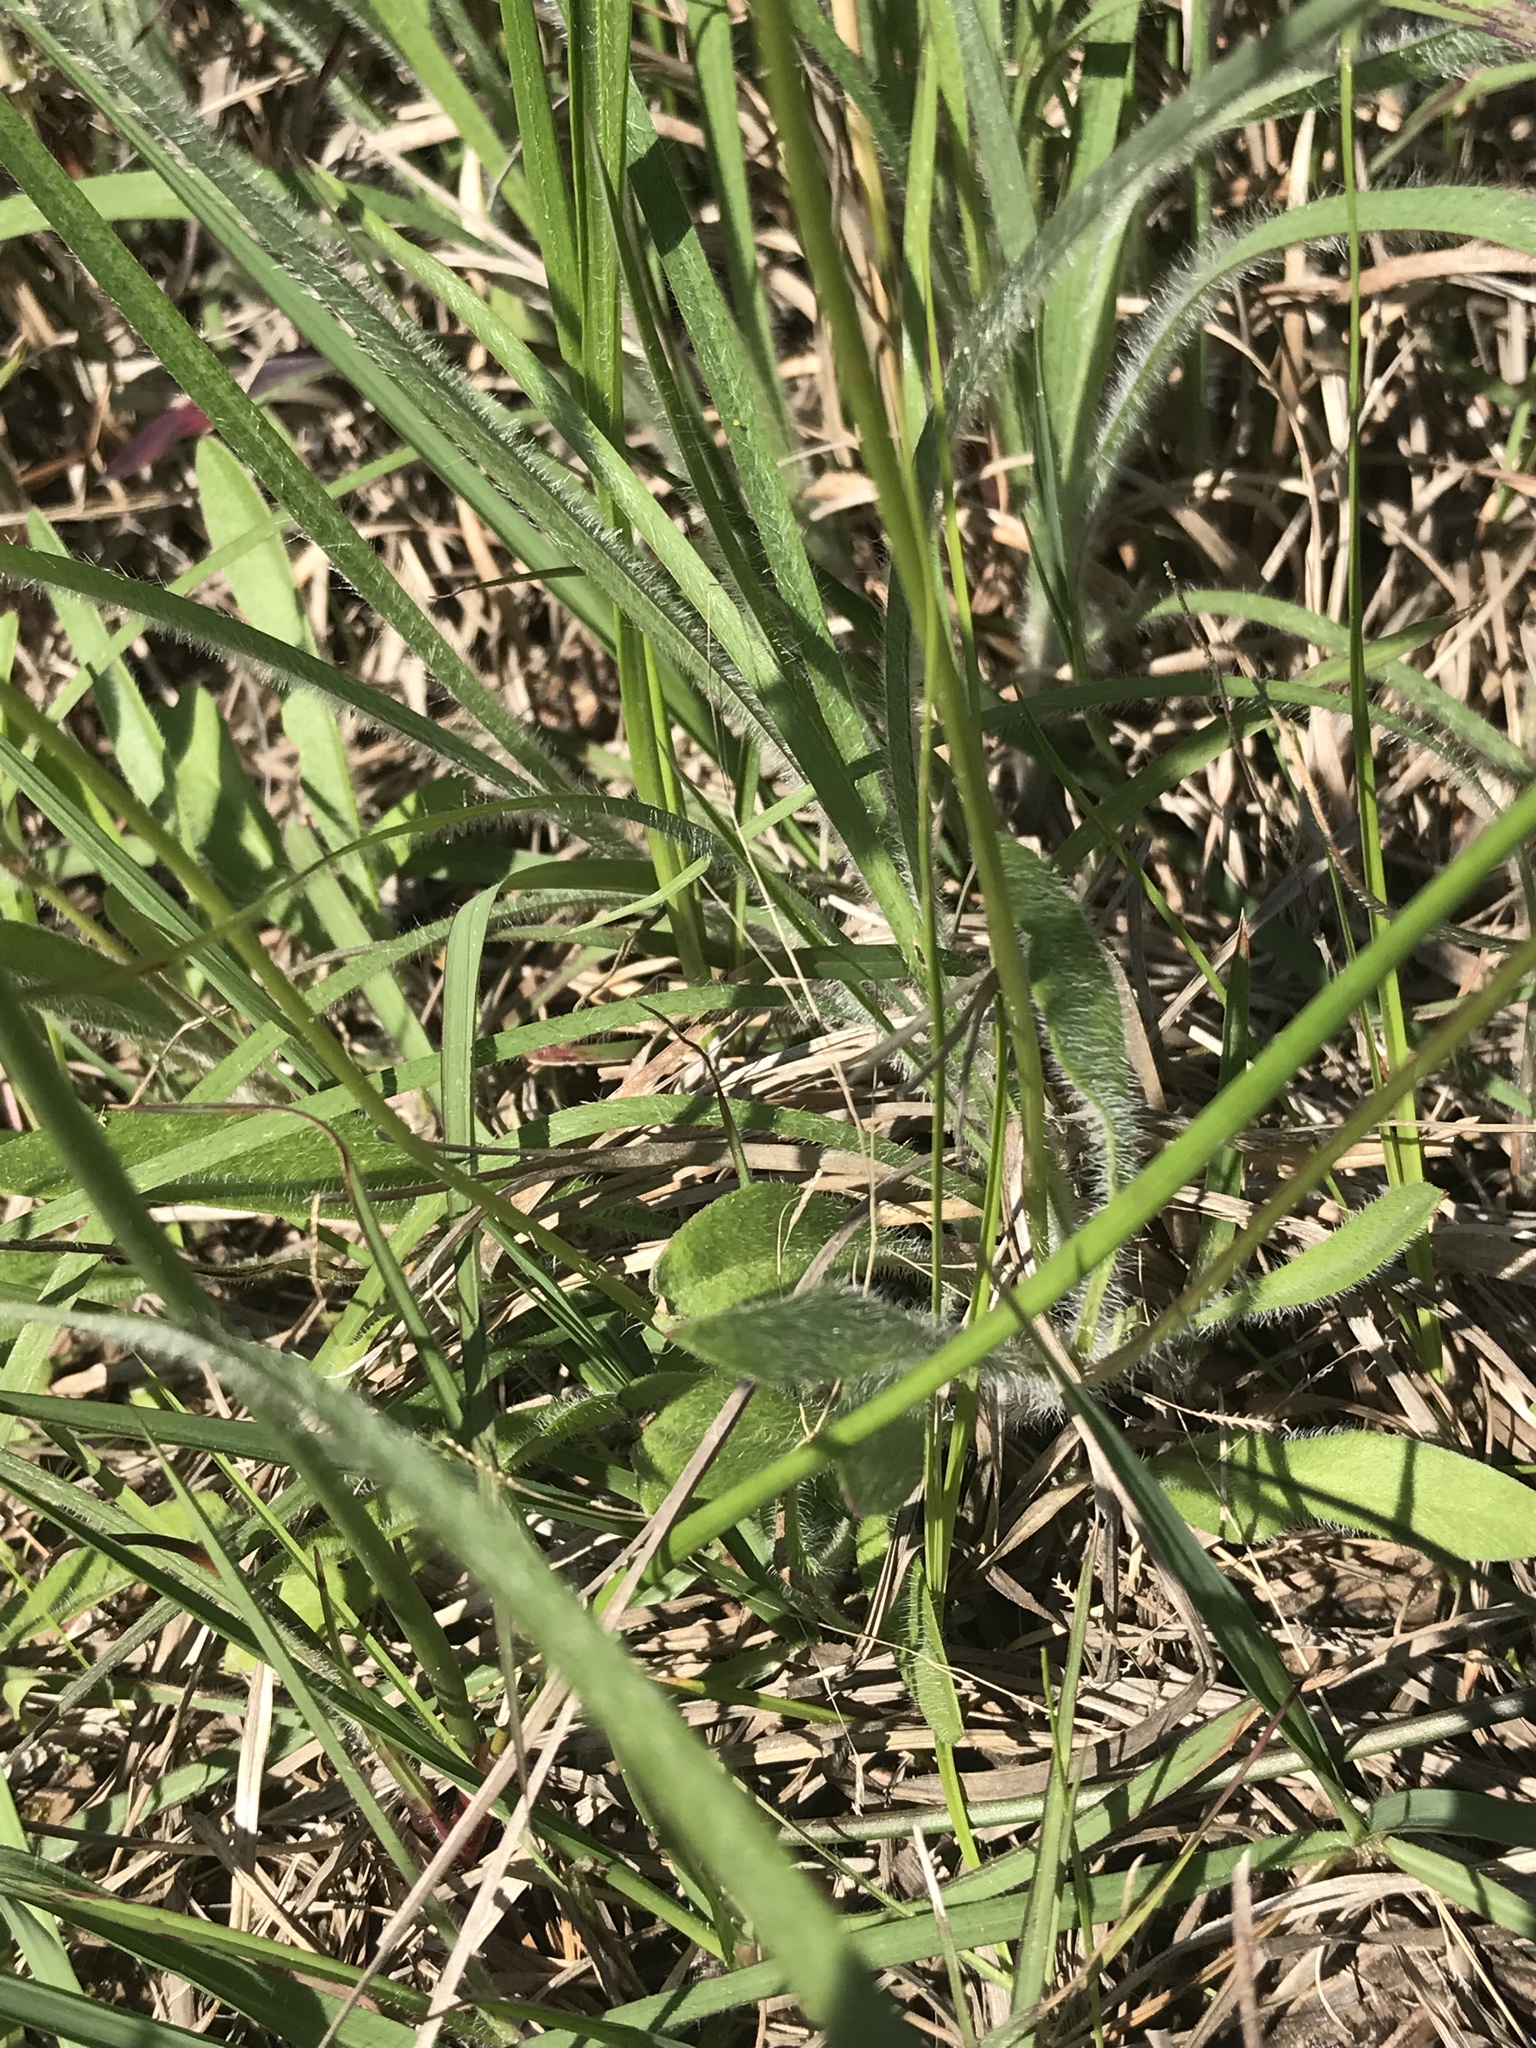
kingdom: Plantae
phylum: Tracheophyta
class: Magnoliopsida
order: Asterales
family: Asteraceae
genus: Coreopsis
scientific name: Coreopsis lanceolata
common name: Garden coreopsis
